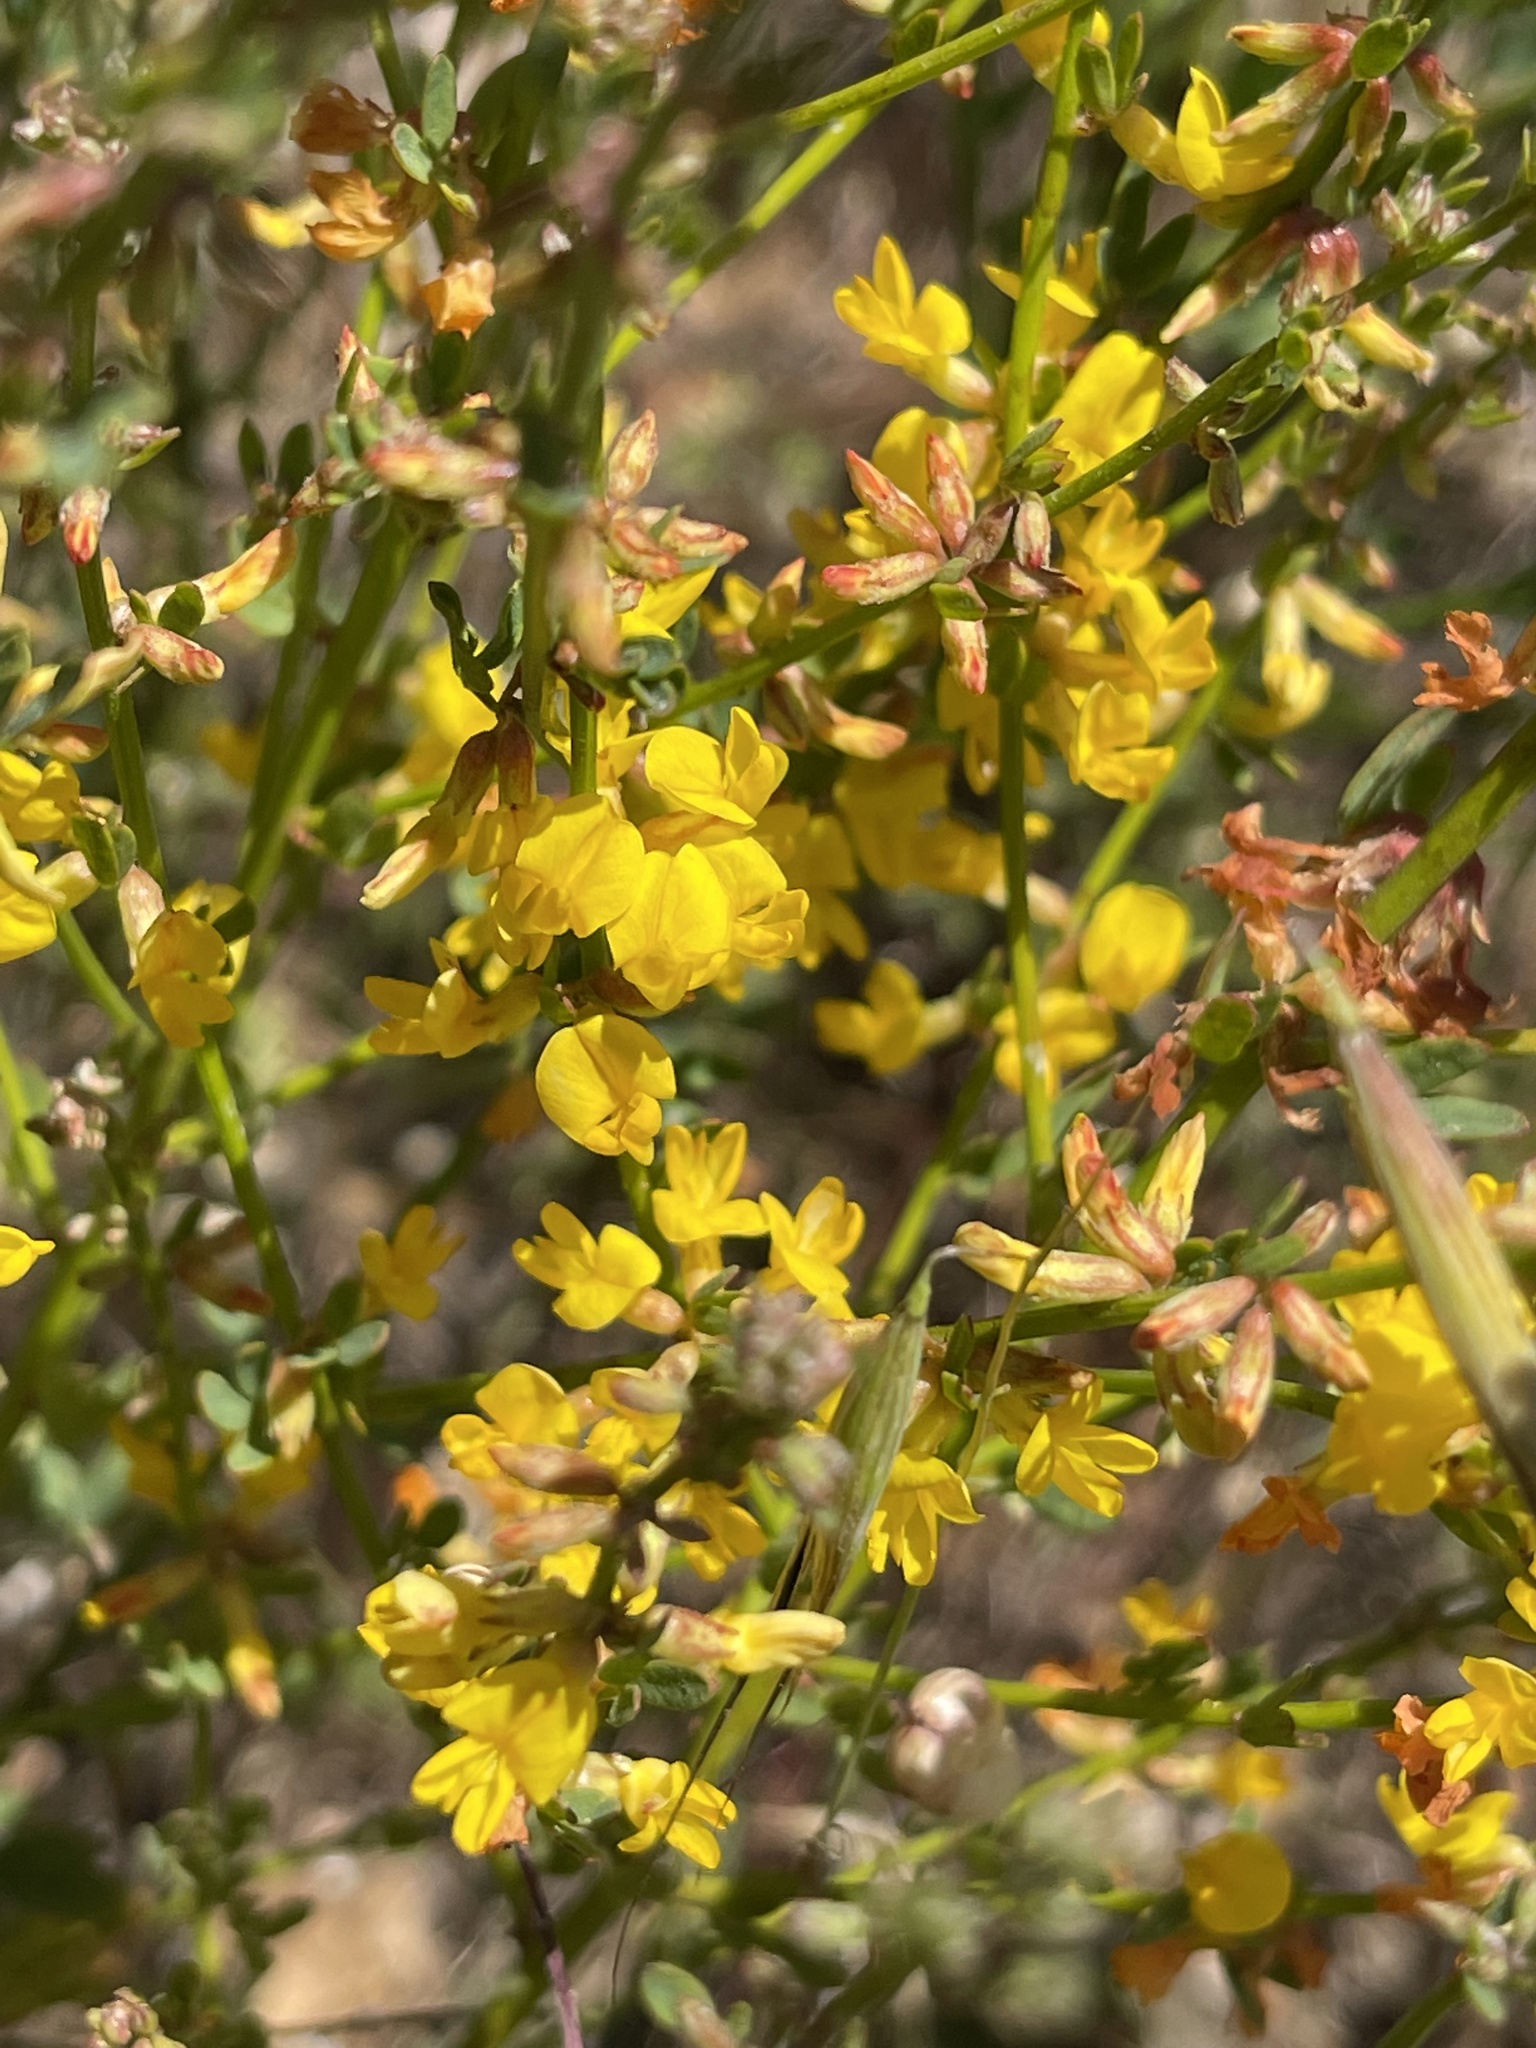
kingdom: Plantae
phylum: Tracheophyta
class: Magnoliopsida
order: Fabales
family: Fabaceae
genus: Acmispon
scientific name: Acmispon glaber
